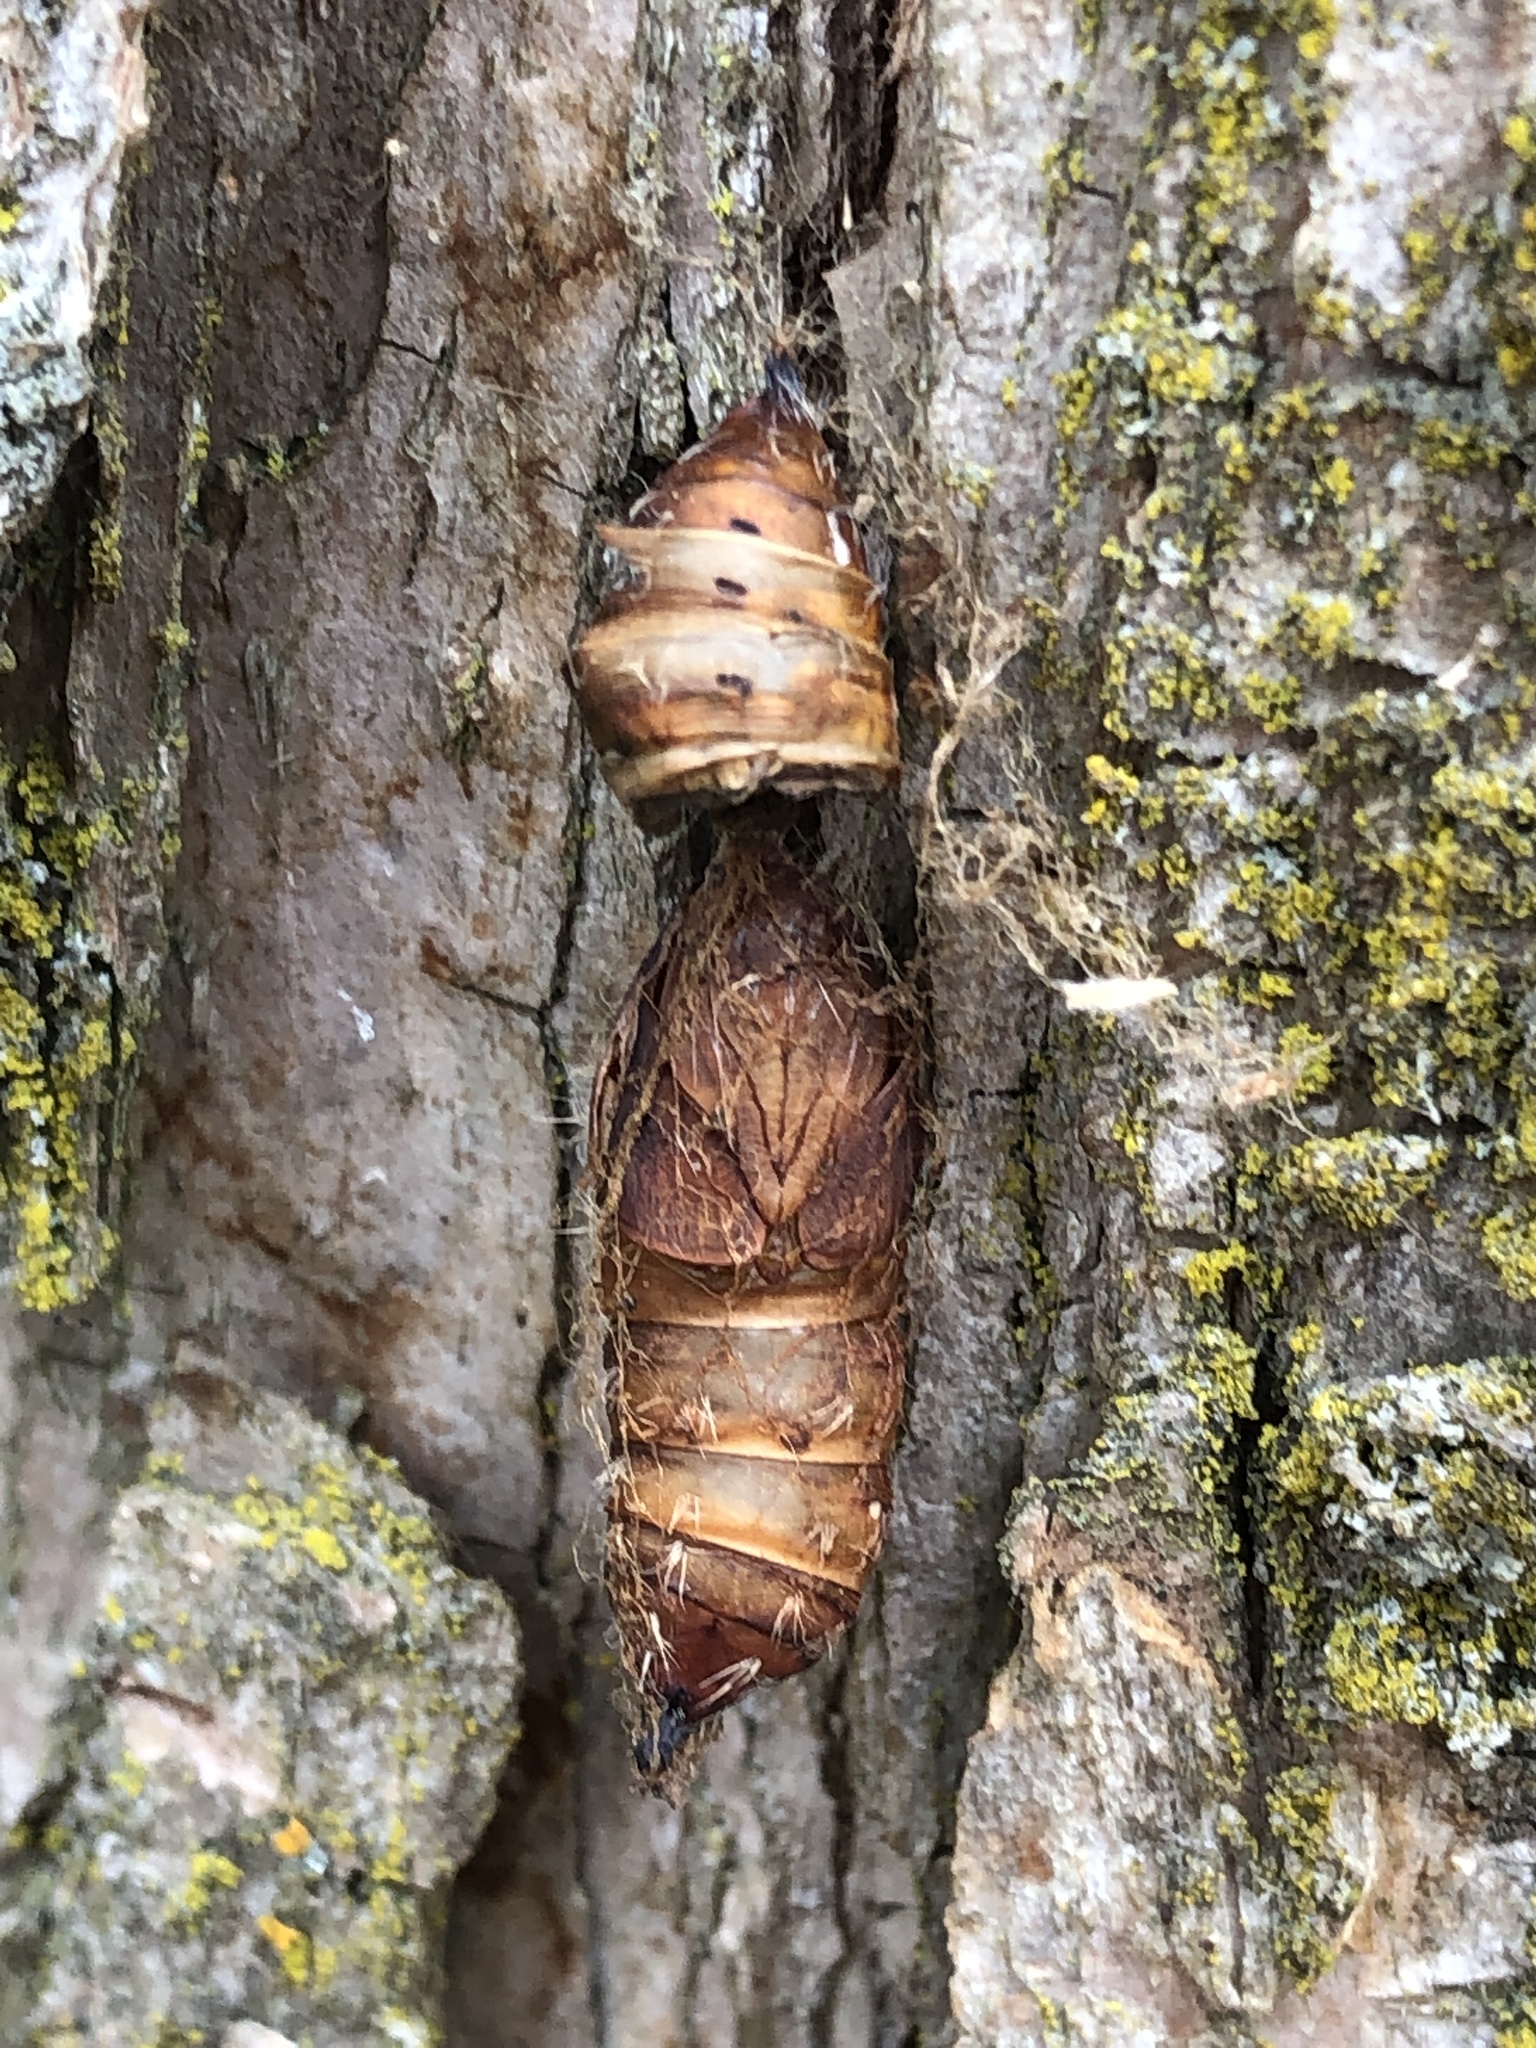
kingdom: Animalia
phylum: Arthropoda
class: Insecta
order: Lepidoptera
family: Erebidae
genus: Lymantria
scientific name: Lymantria dispar
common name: Gypsy moth
